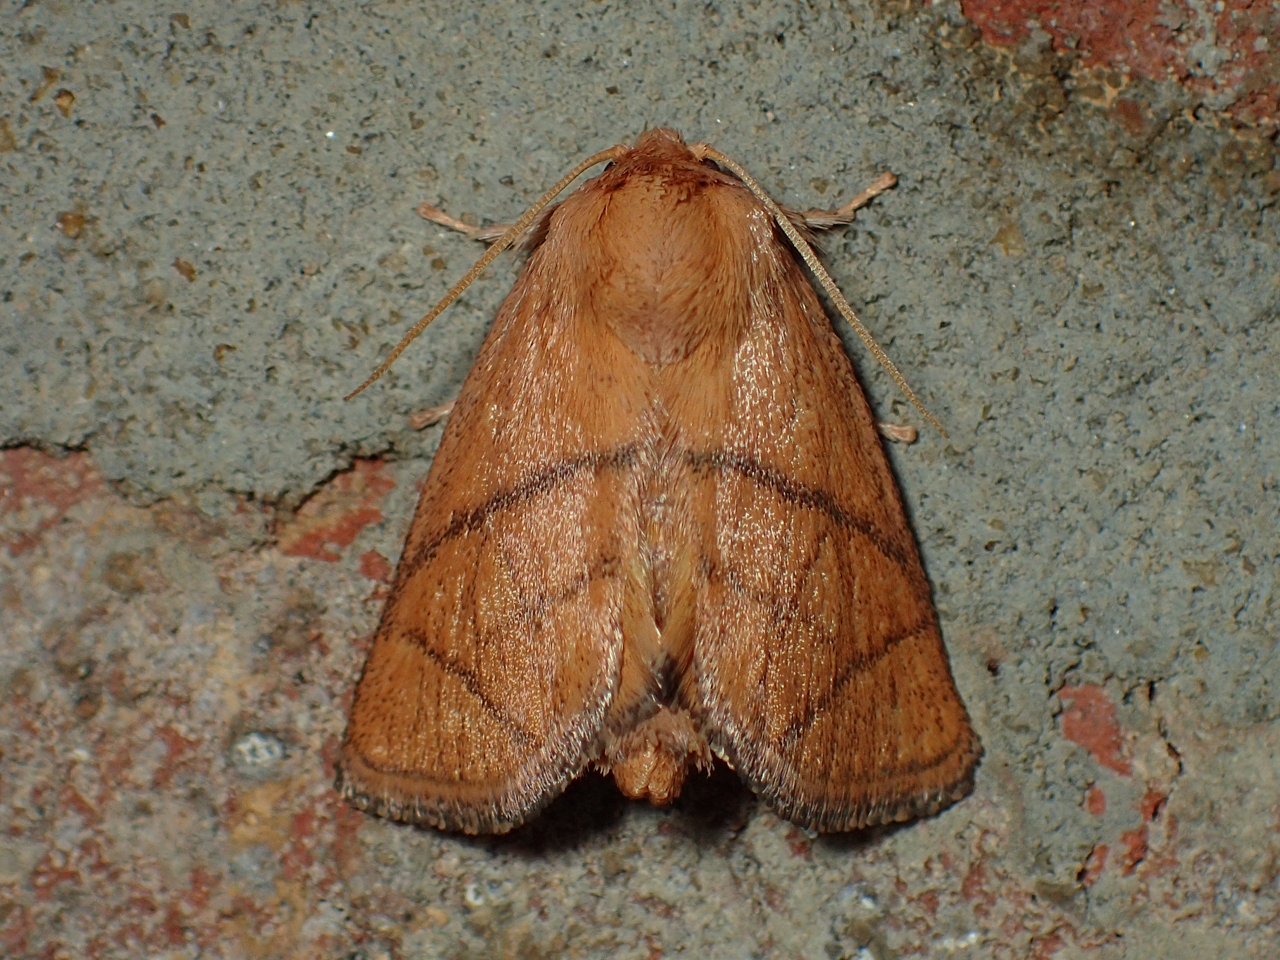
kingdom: Animalia
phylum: Arthropoda
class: Insecta
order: Lepidoptera
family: Limacodidae
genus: Apoda
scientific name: Apoda y-inversa
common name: Yellow-collared slug moth
